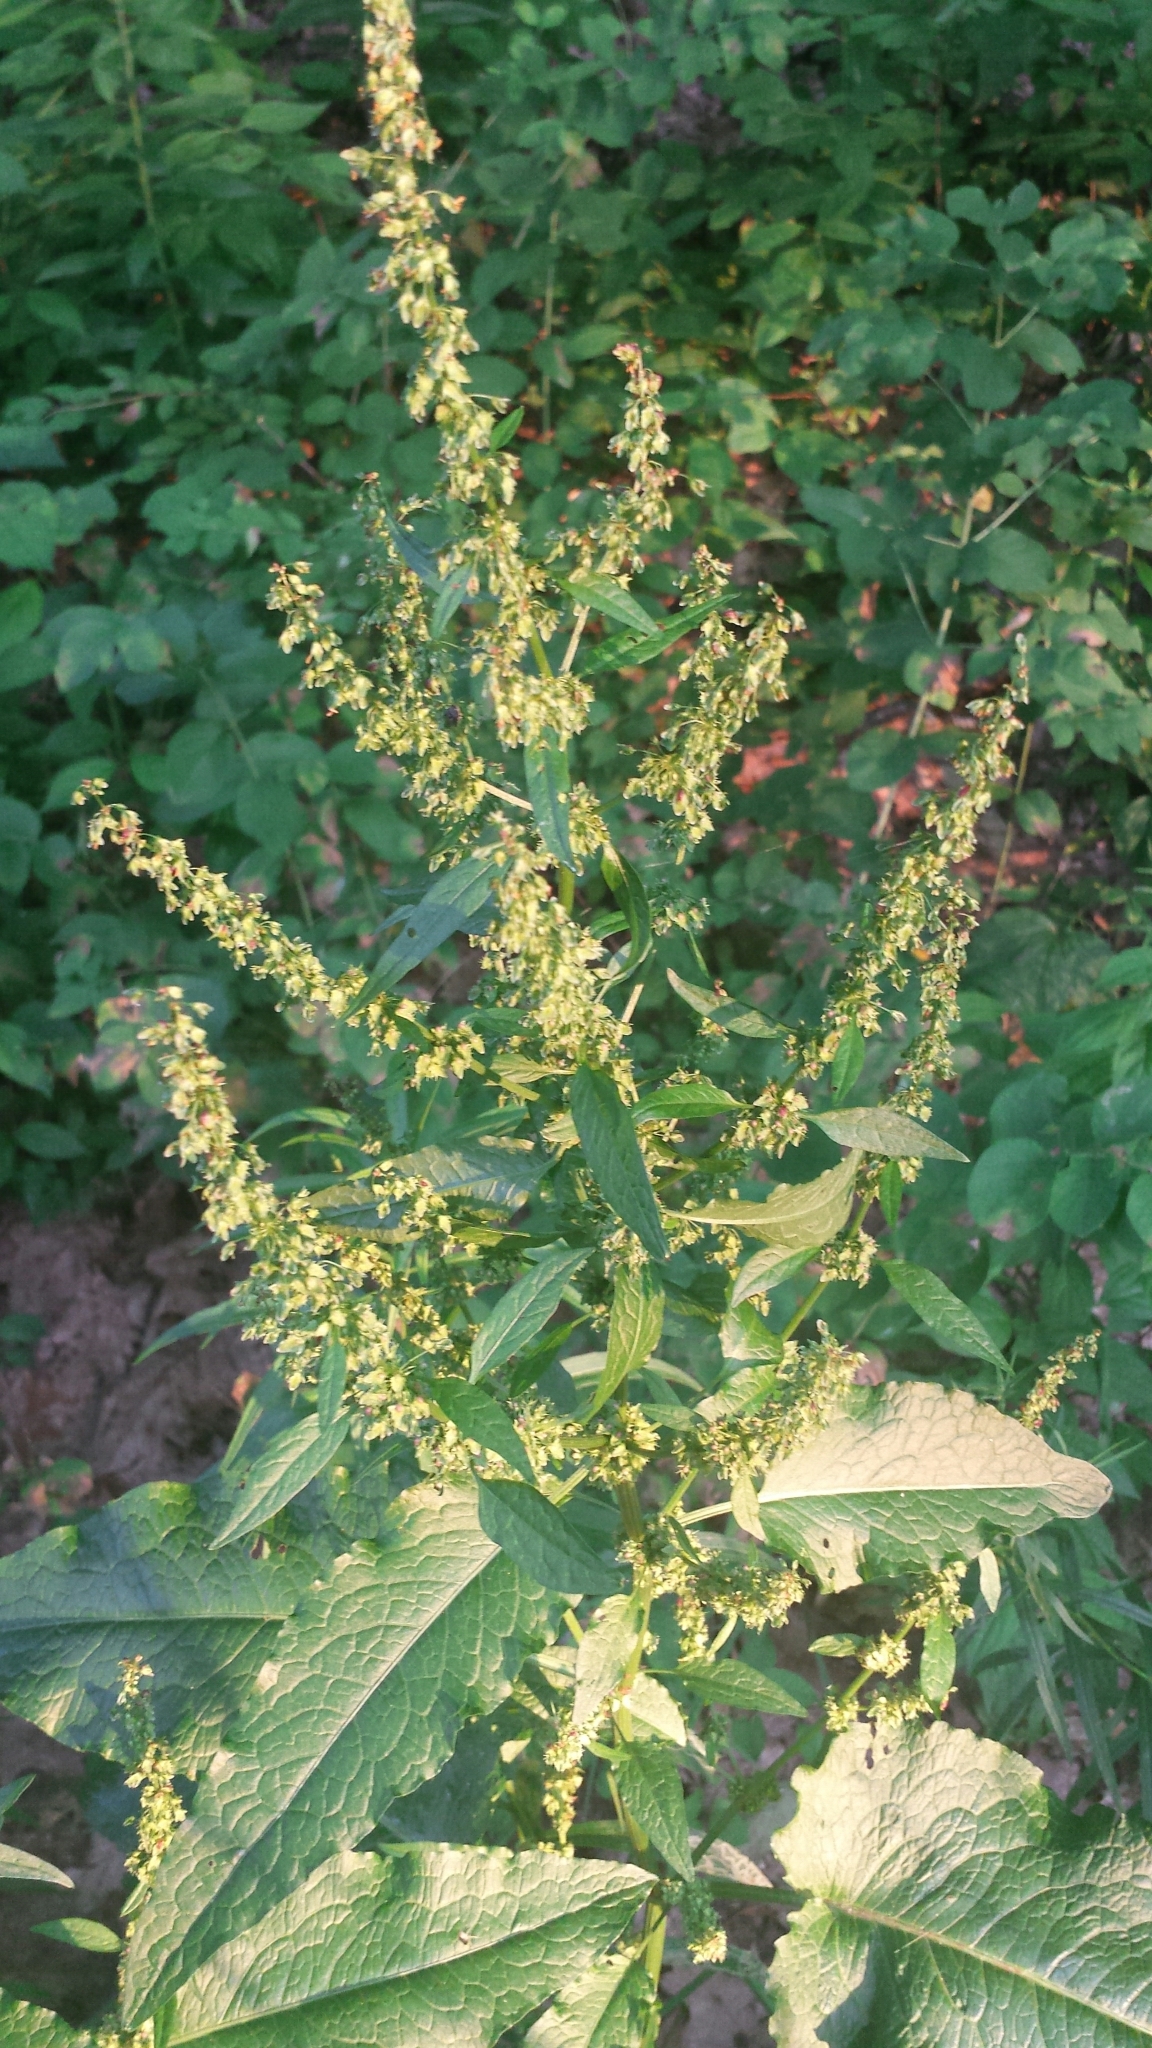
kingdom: Plantae
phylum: Tracheophyta
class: Magnoliopsida
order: Caryophyllales
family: Polygonaceae
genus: Rumex
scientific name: Rumex obtusifolius
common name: Bitter dock
